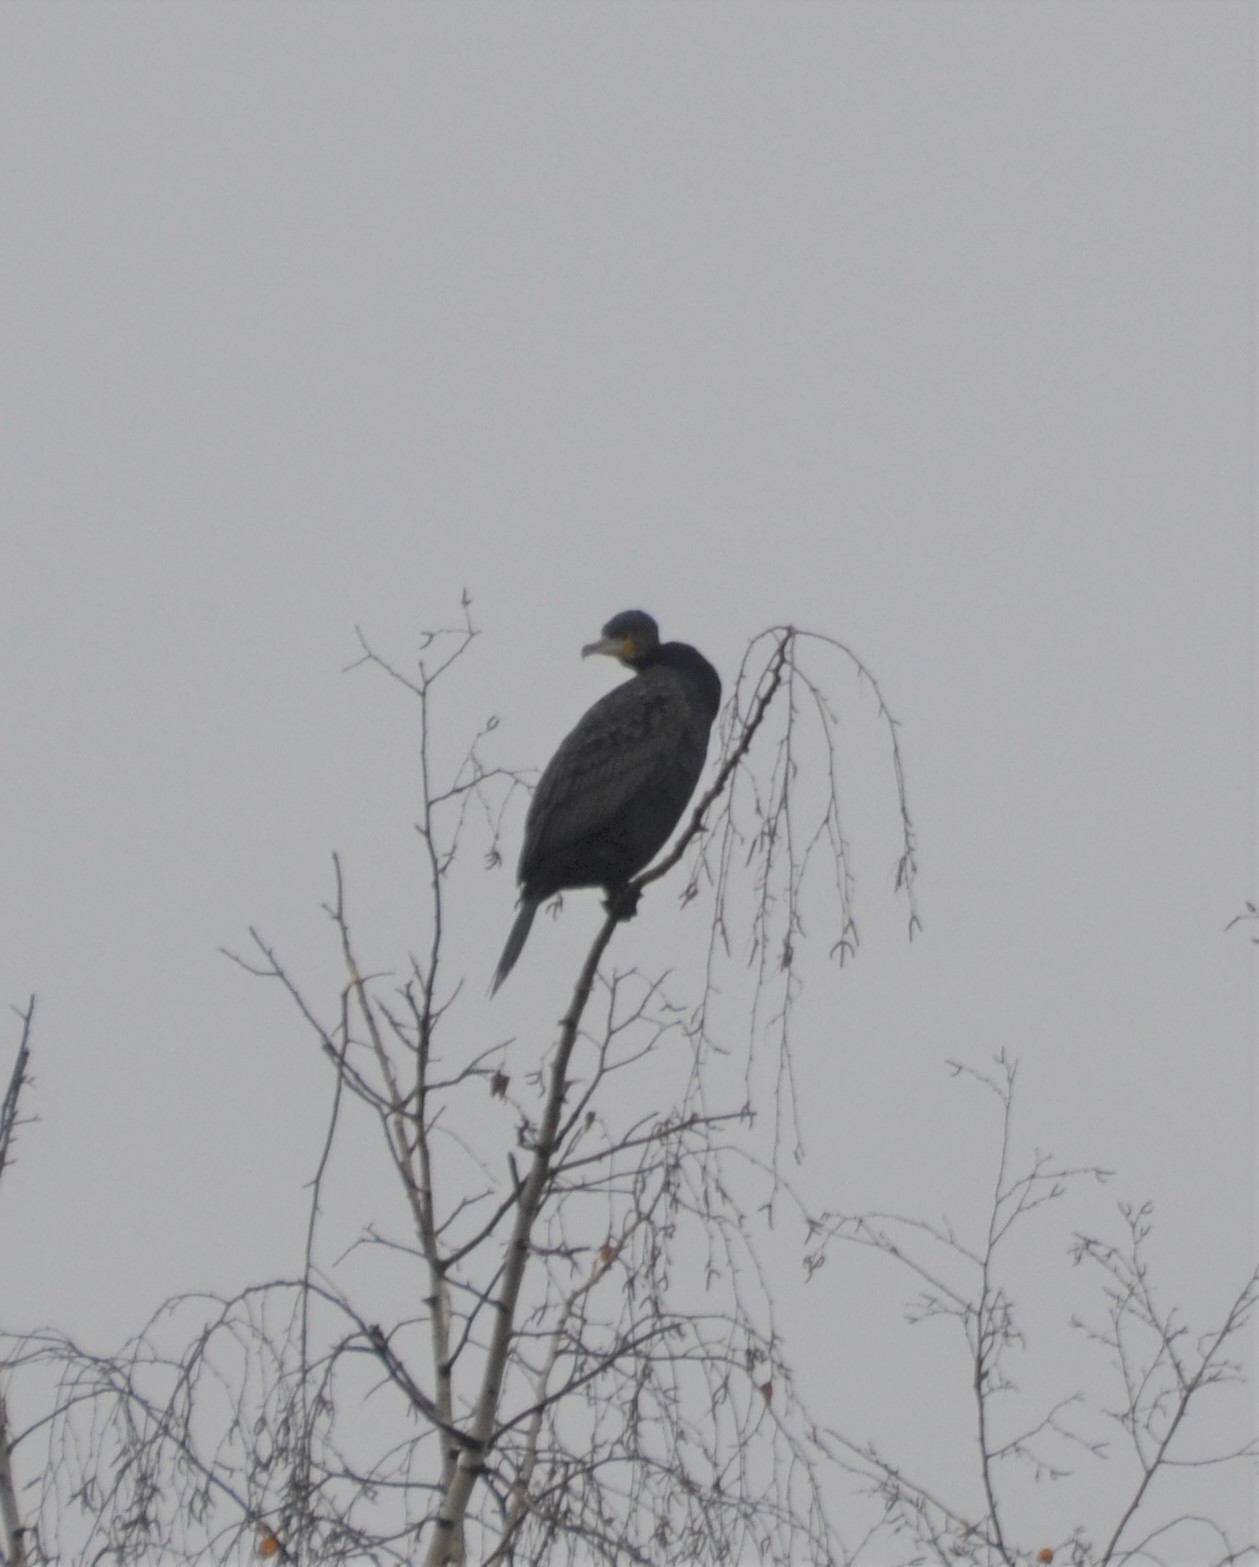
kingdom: Animalia
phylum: Chordata
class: Aves
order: Suliformes
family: Phalacrocoracidae
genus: Phalacrocorax
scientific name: Phalacrocorax carbo
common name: Great cormorant
